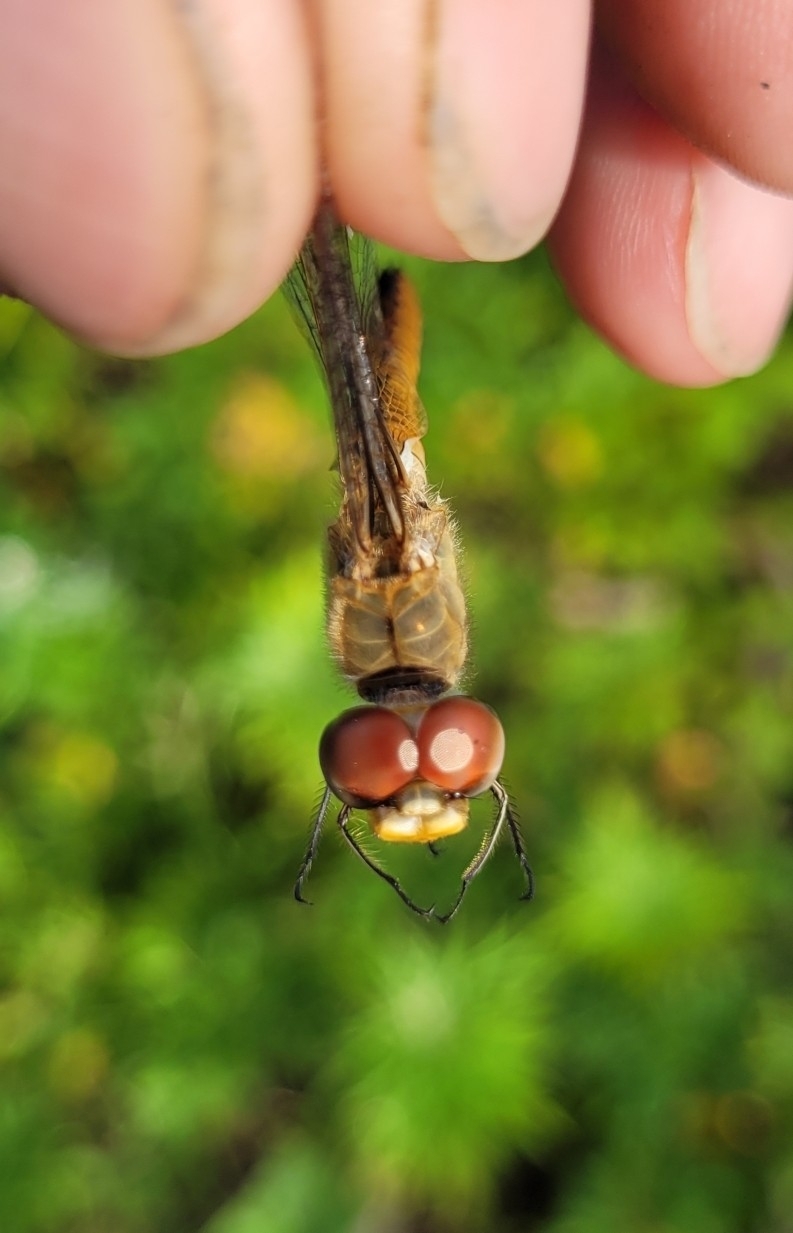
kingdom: Animalia
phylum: Arthropoda
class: Insecta
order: Odonata
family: Libellulidae
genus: Pantala
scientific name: Pantala flavescens
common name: Wandering glider
